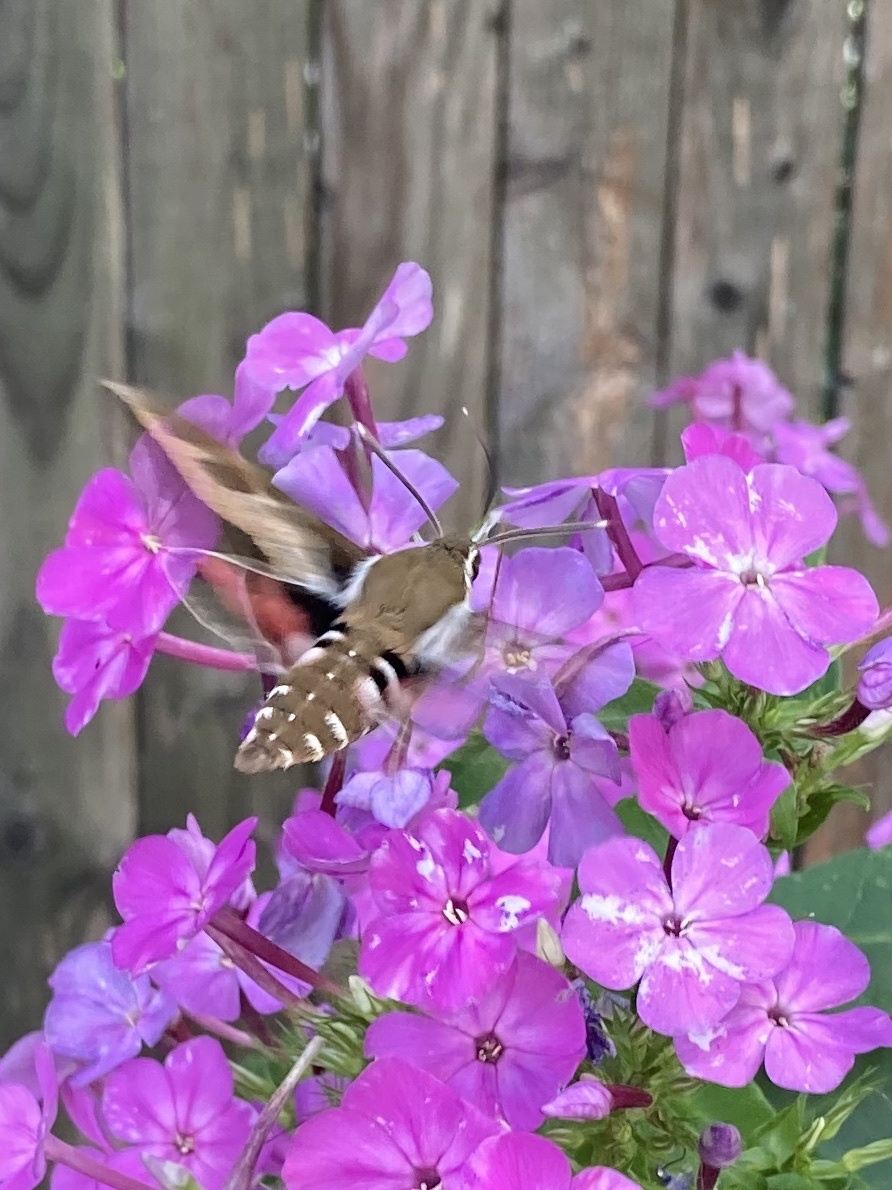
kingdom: Animalia
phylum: Arthropoda
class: Insecta
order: Lepidoptera
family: Sphingidae
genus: Hyles
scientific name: Hyles gallii
